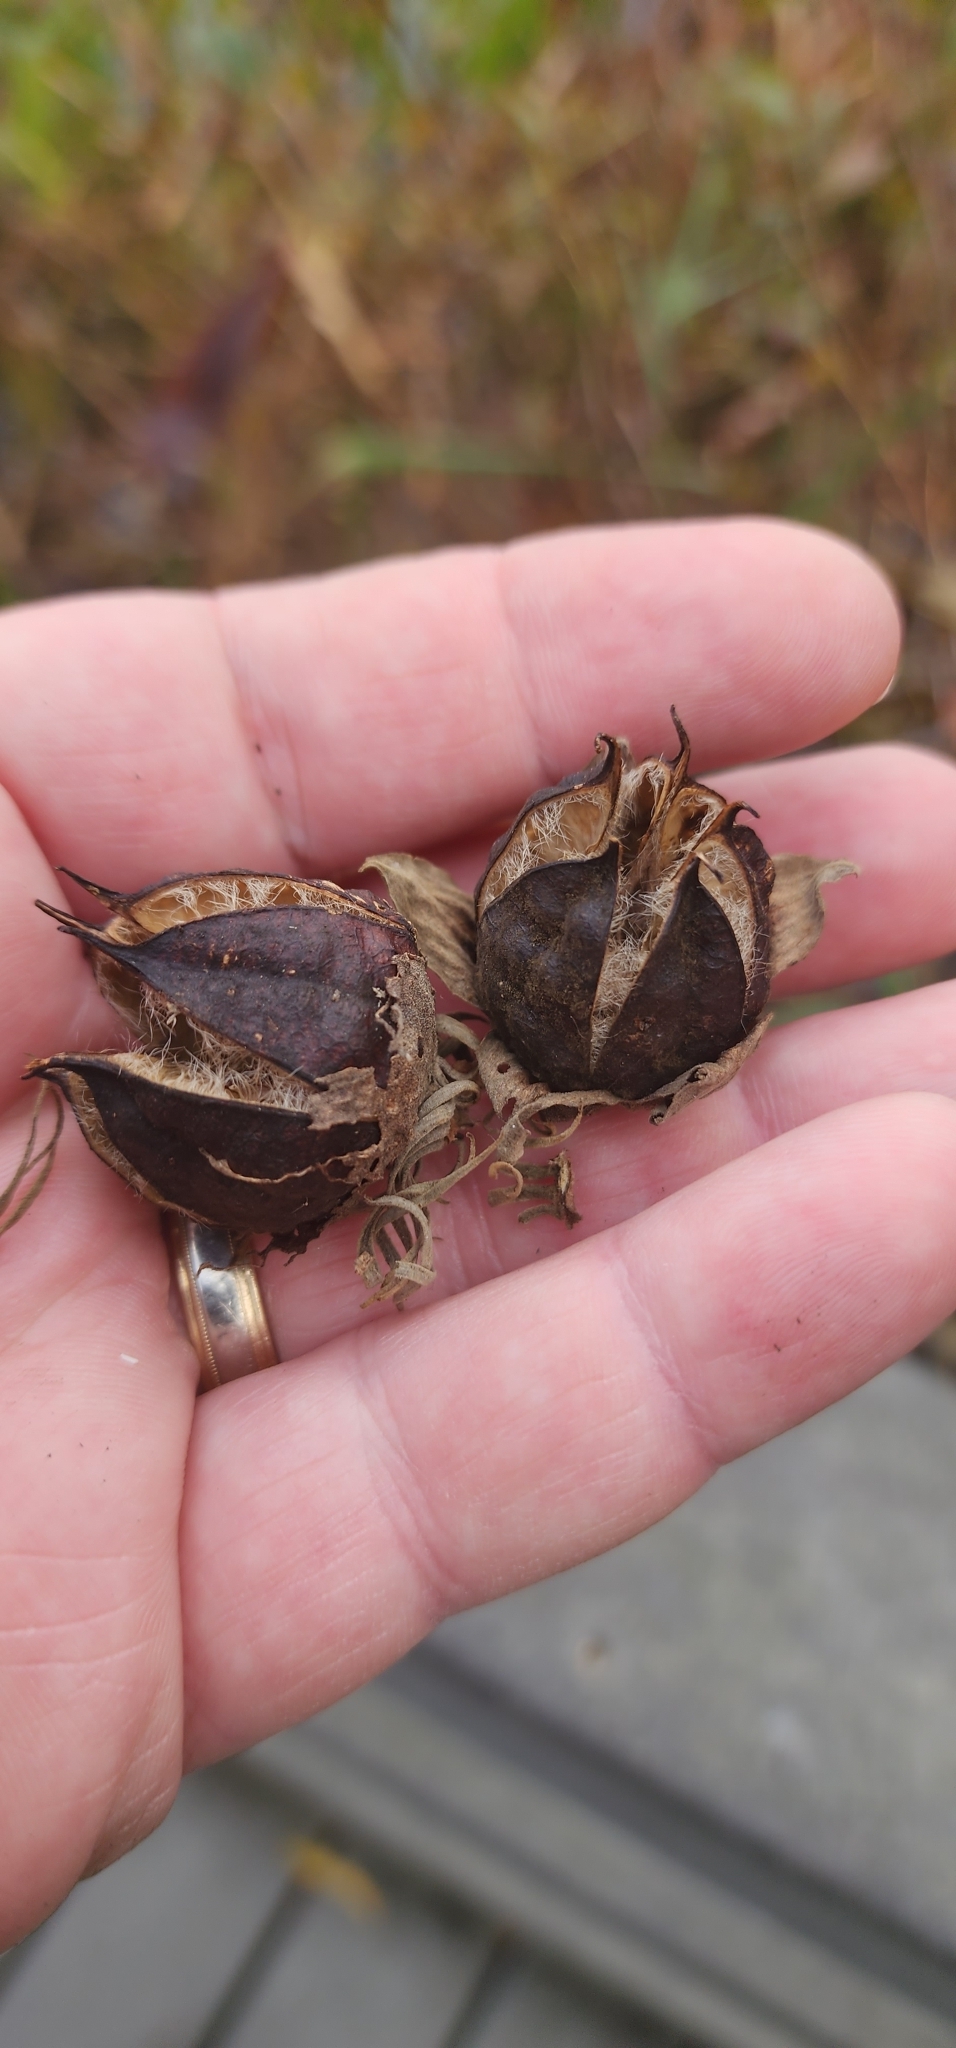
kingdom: Plantae
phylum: Tracheophyta
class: Magnoliopsida
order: Malvales
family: Malvaceae
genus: Hibiscus
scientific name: Hibiscus moscheutos
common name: Common rose-mallow
